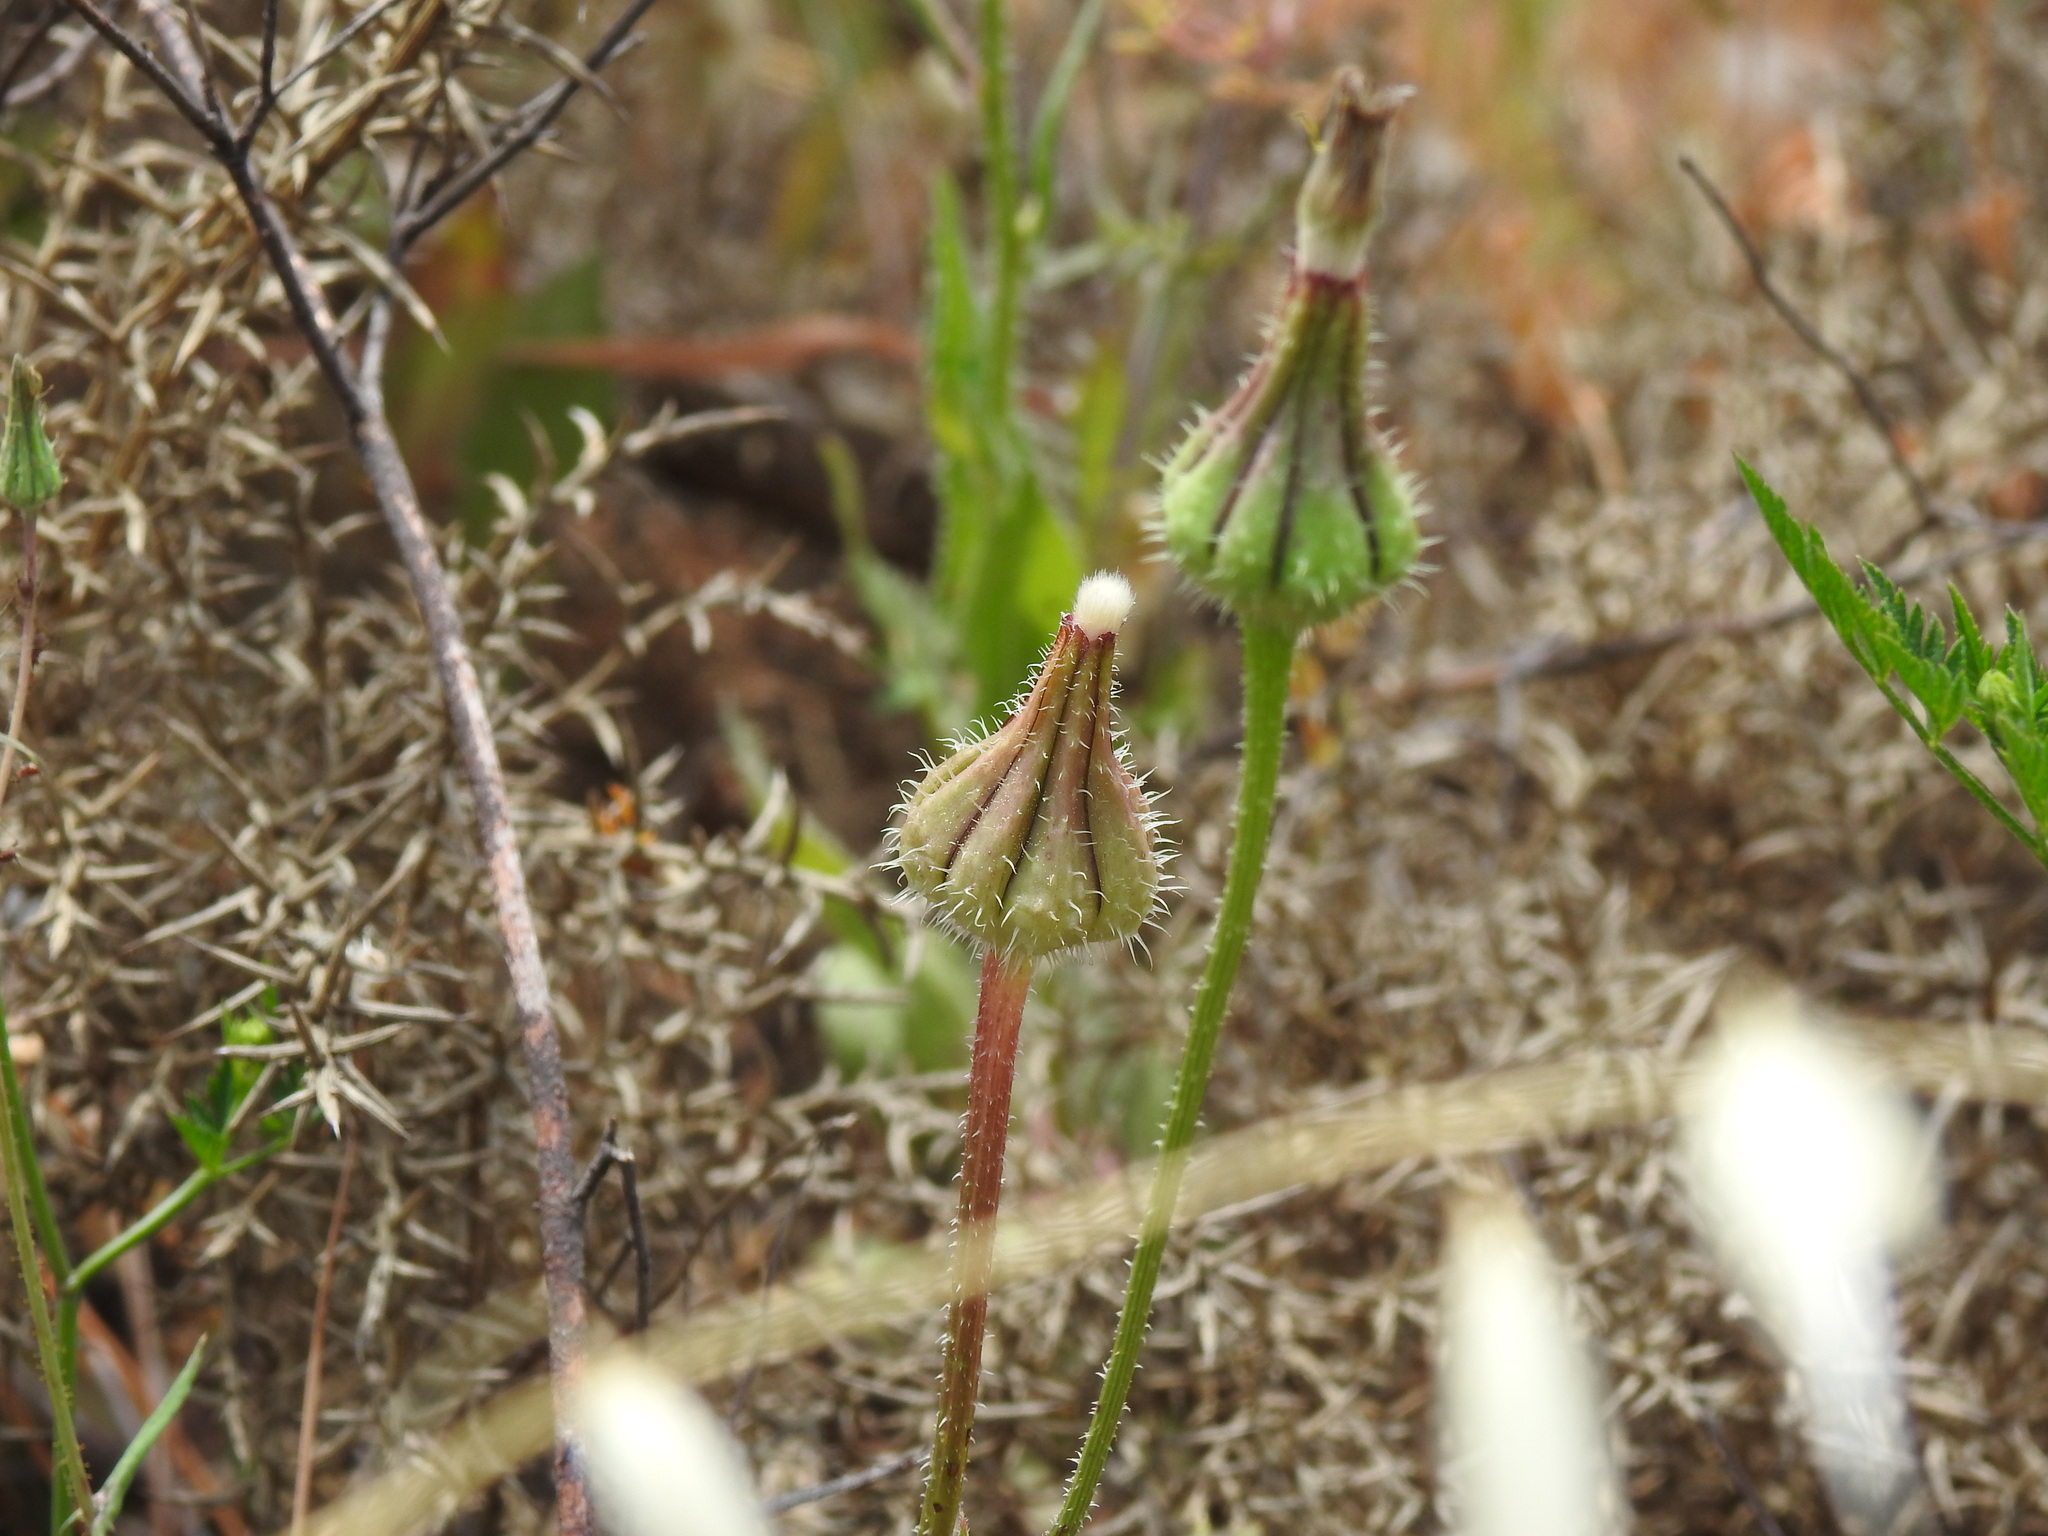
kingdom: Plantae
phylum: Tracheophyta
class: Magnoliopsida
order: Asterales
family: Asteraceae
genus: Urospermum
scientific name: Urospermum picroides
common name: False hawkbit
